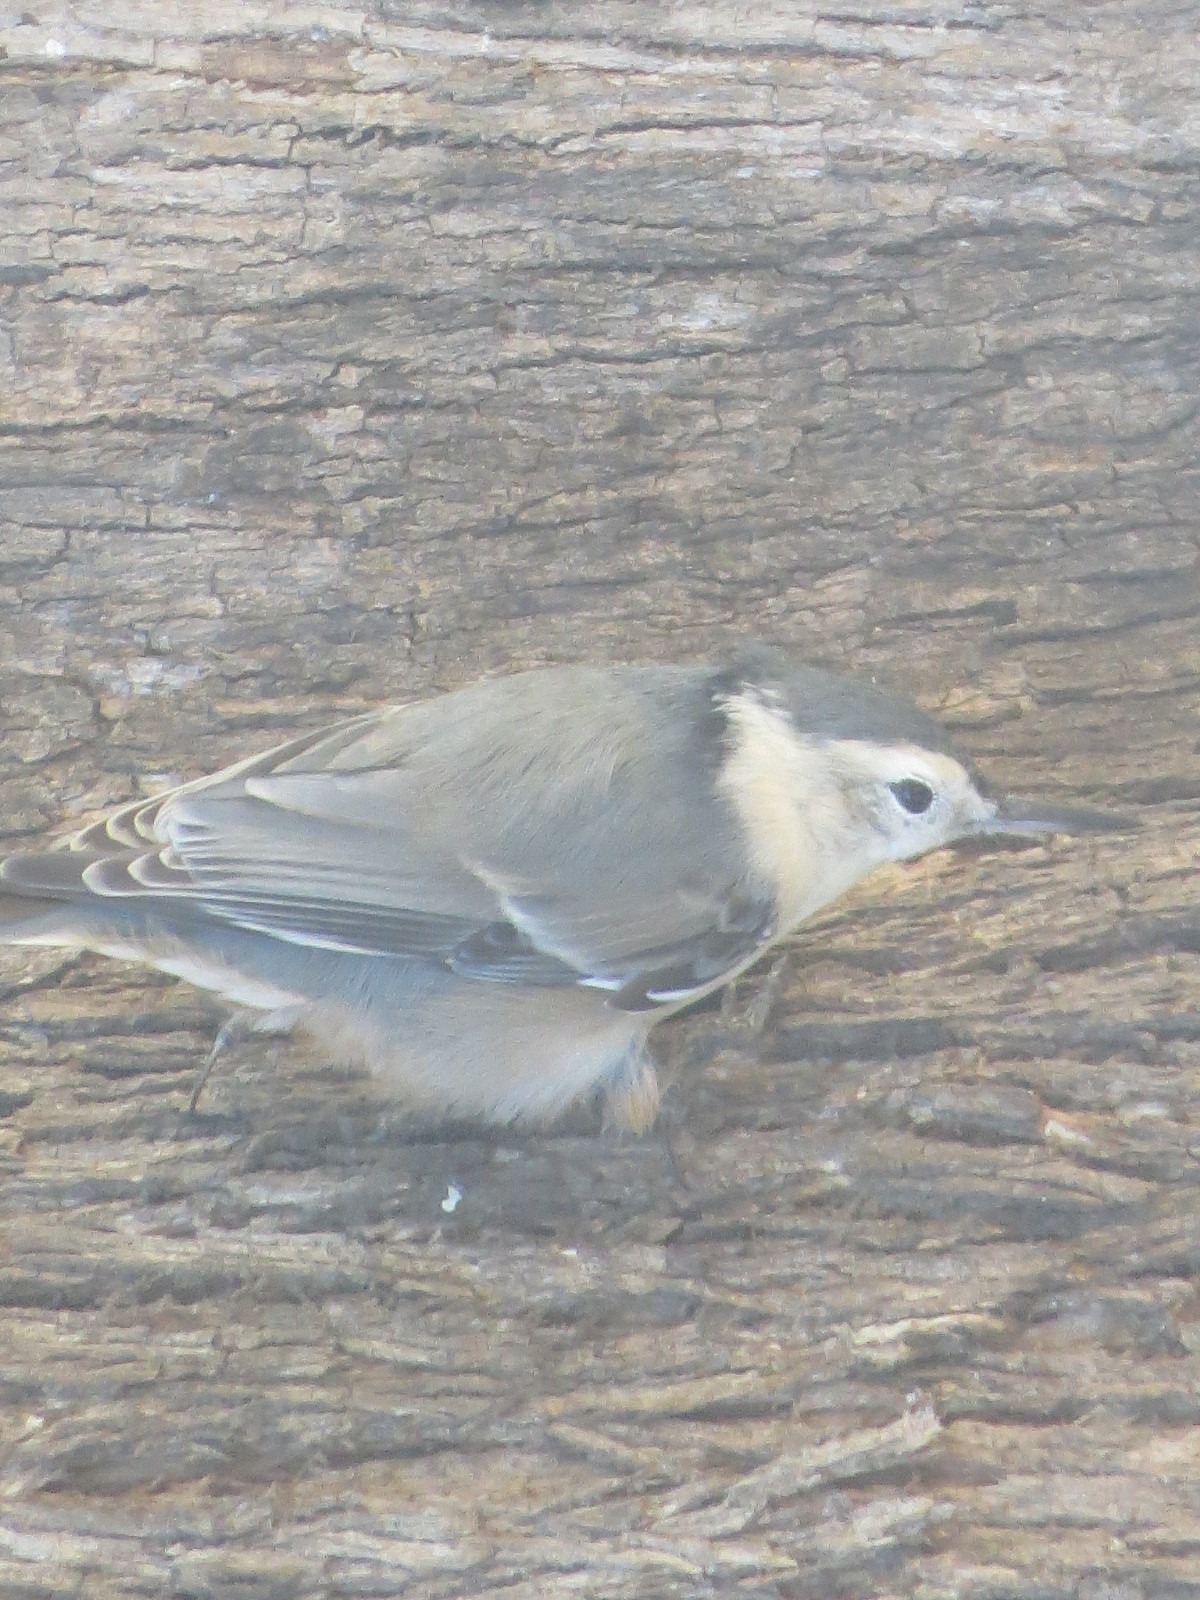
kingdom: Animalia
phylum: Chordata
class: Aves
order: Passeriformes
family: Sittidae
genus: Sitta
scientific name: Sitta carolinensis
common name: White-breasted nuthatch
